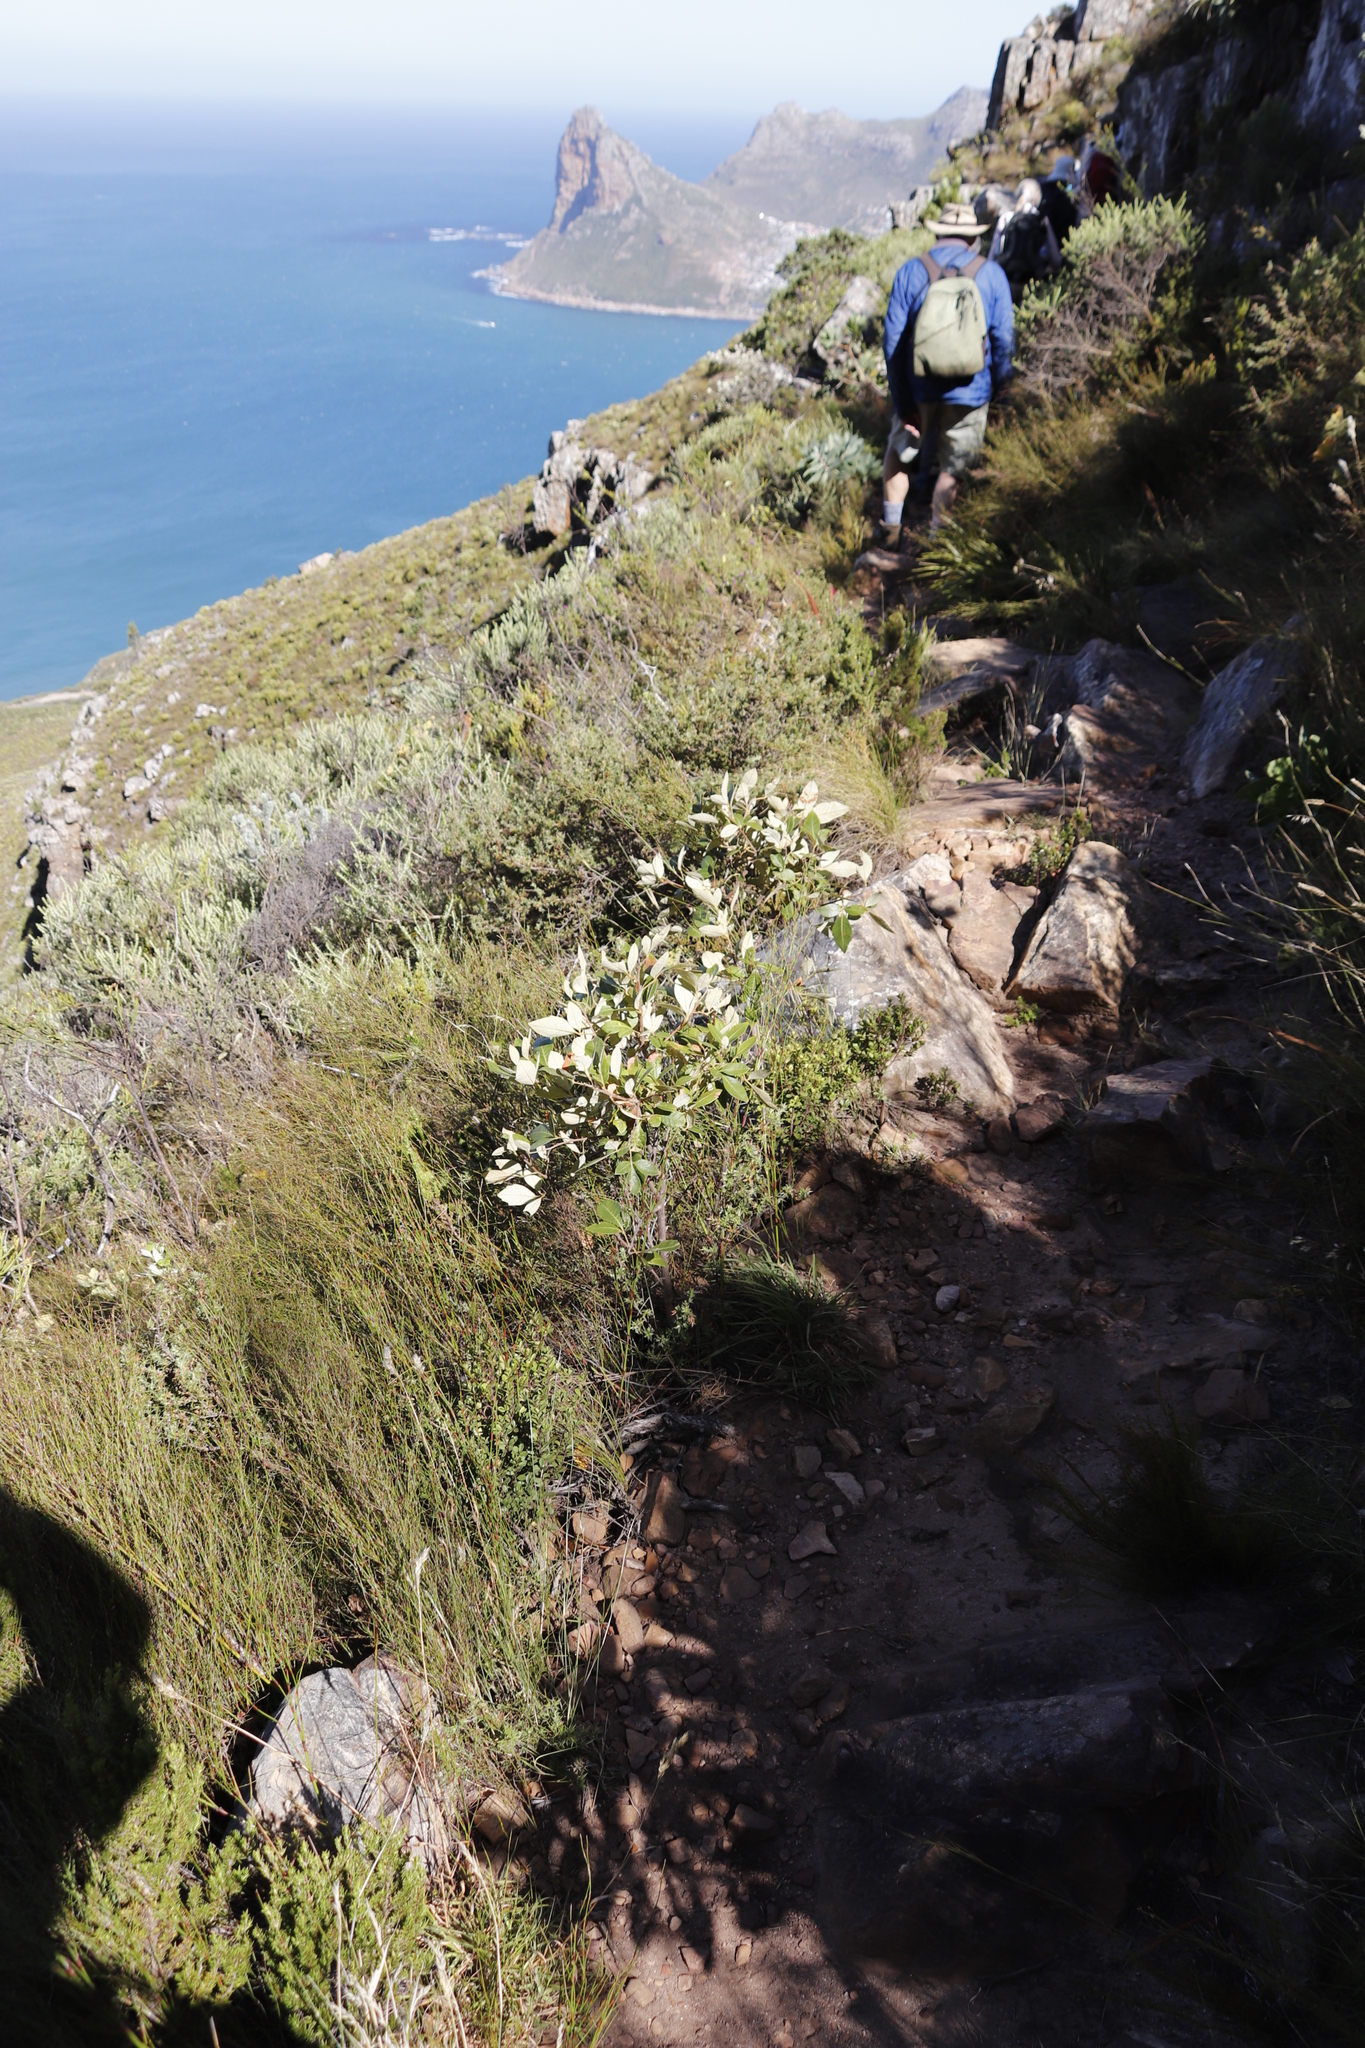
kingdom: Plantae
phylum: Tracheophyta
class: Magnoliopsida
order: Sapindales
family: Anacardiaceae
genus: Searsia
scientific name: Searsia tomentosa
